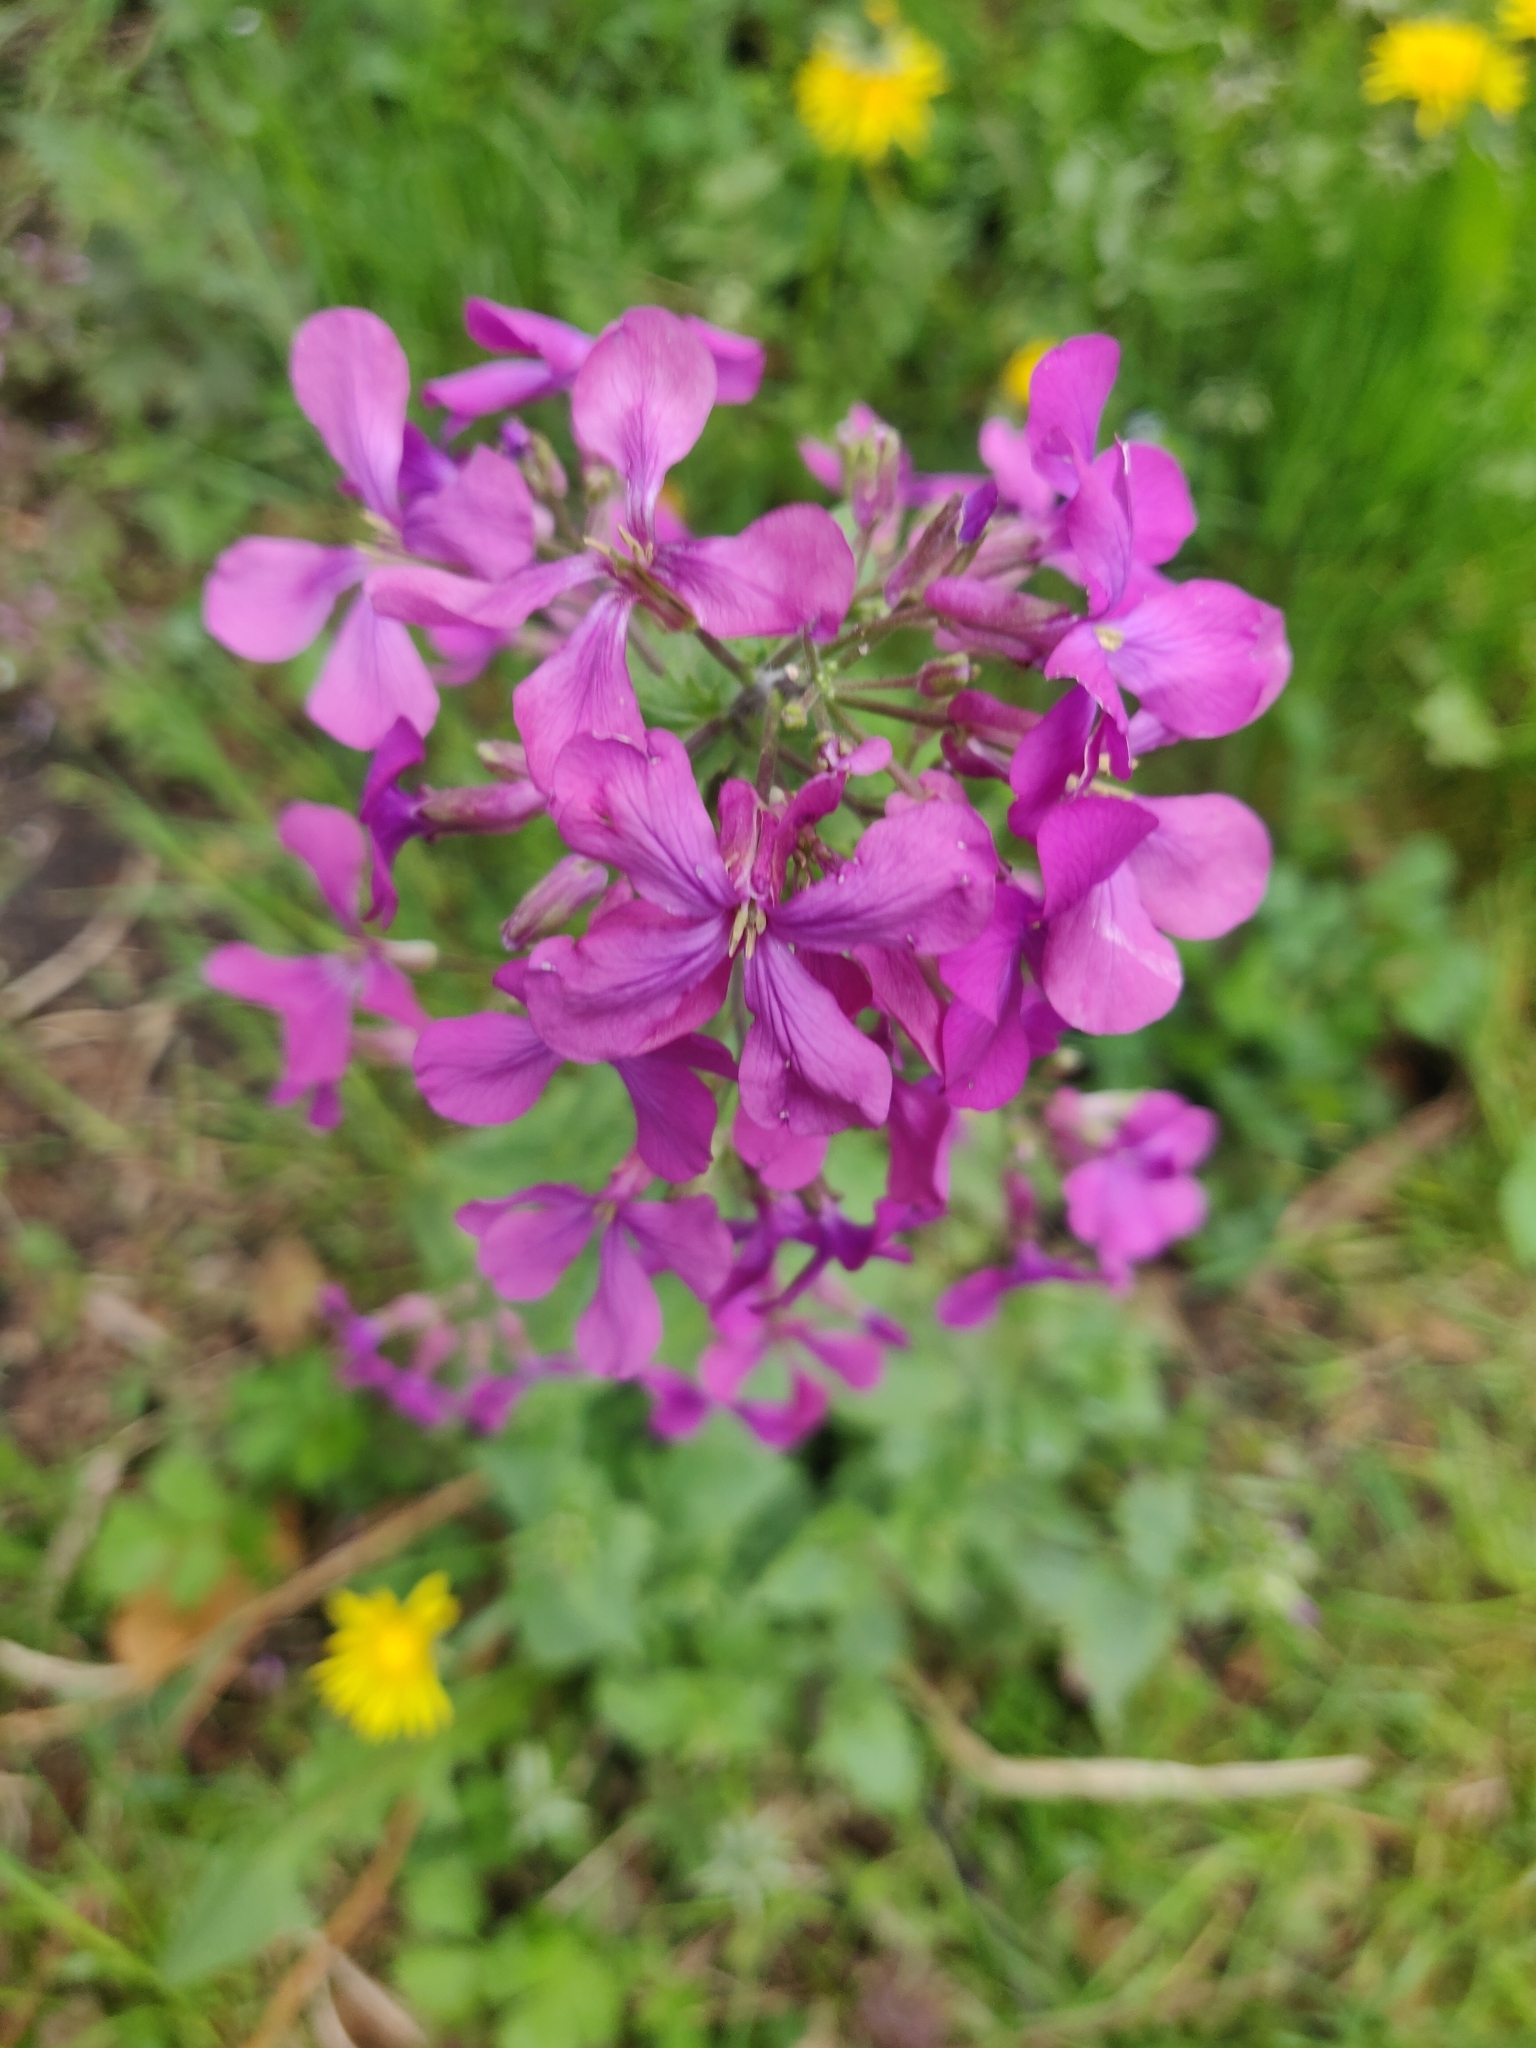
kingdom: Plantae
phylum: Tracheophyta
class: Magnoliopsida
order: Brassicales
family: Brassicaceae
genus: Lunaria
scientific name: Lunaria annua
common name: Honesty
